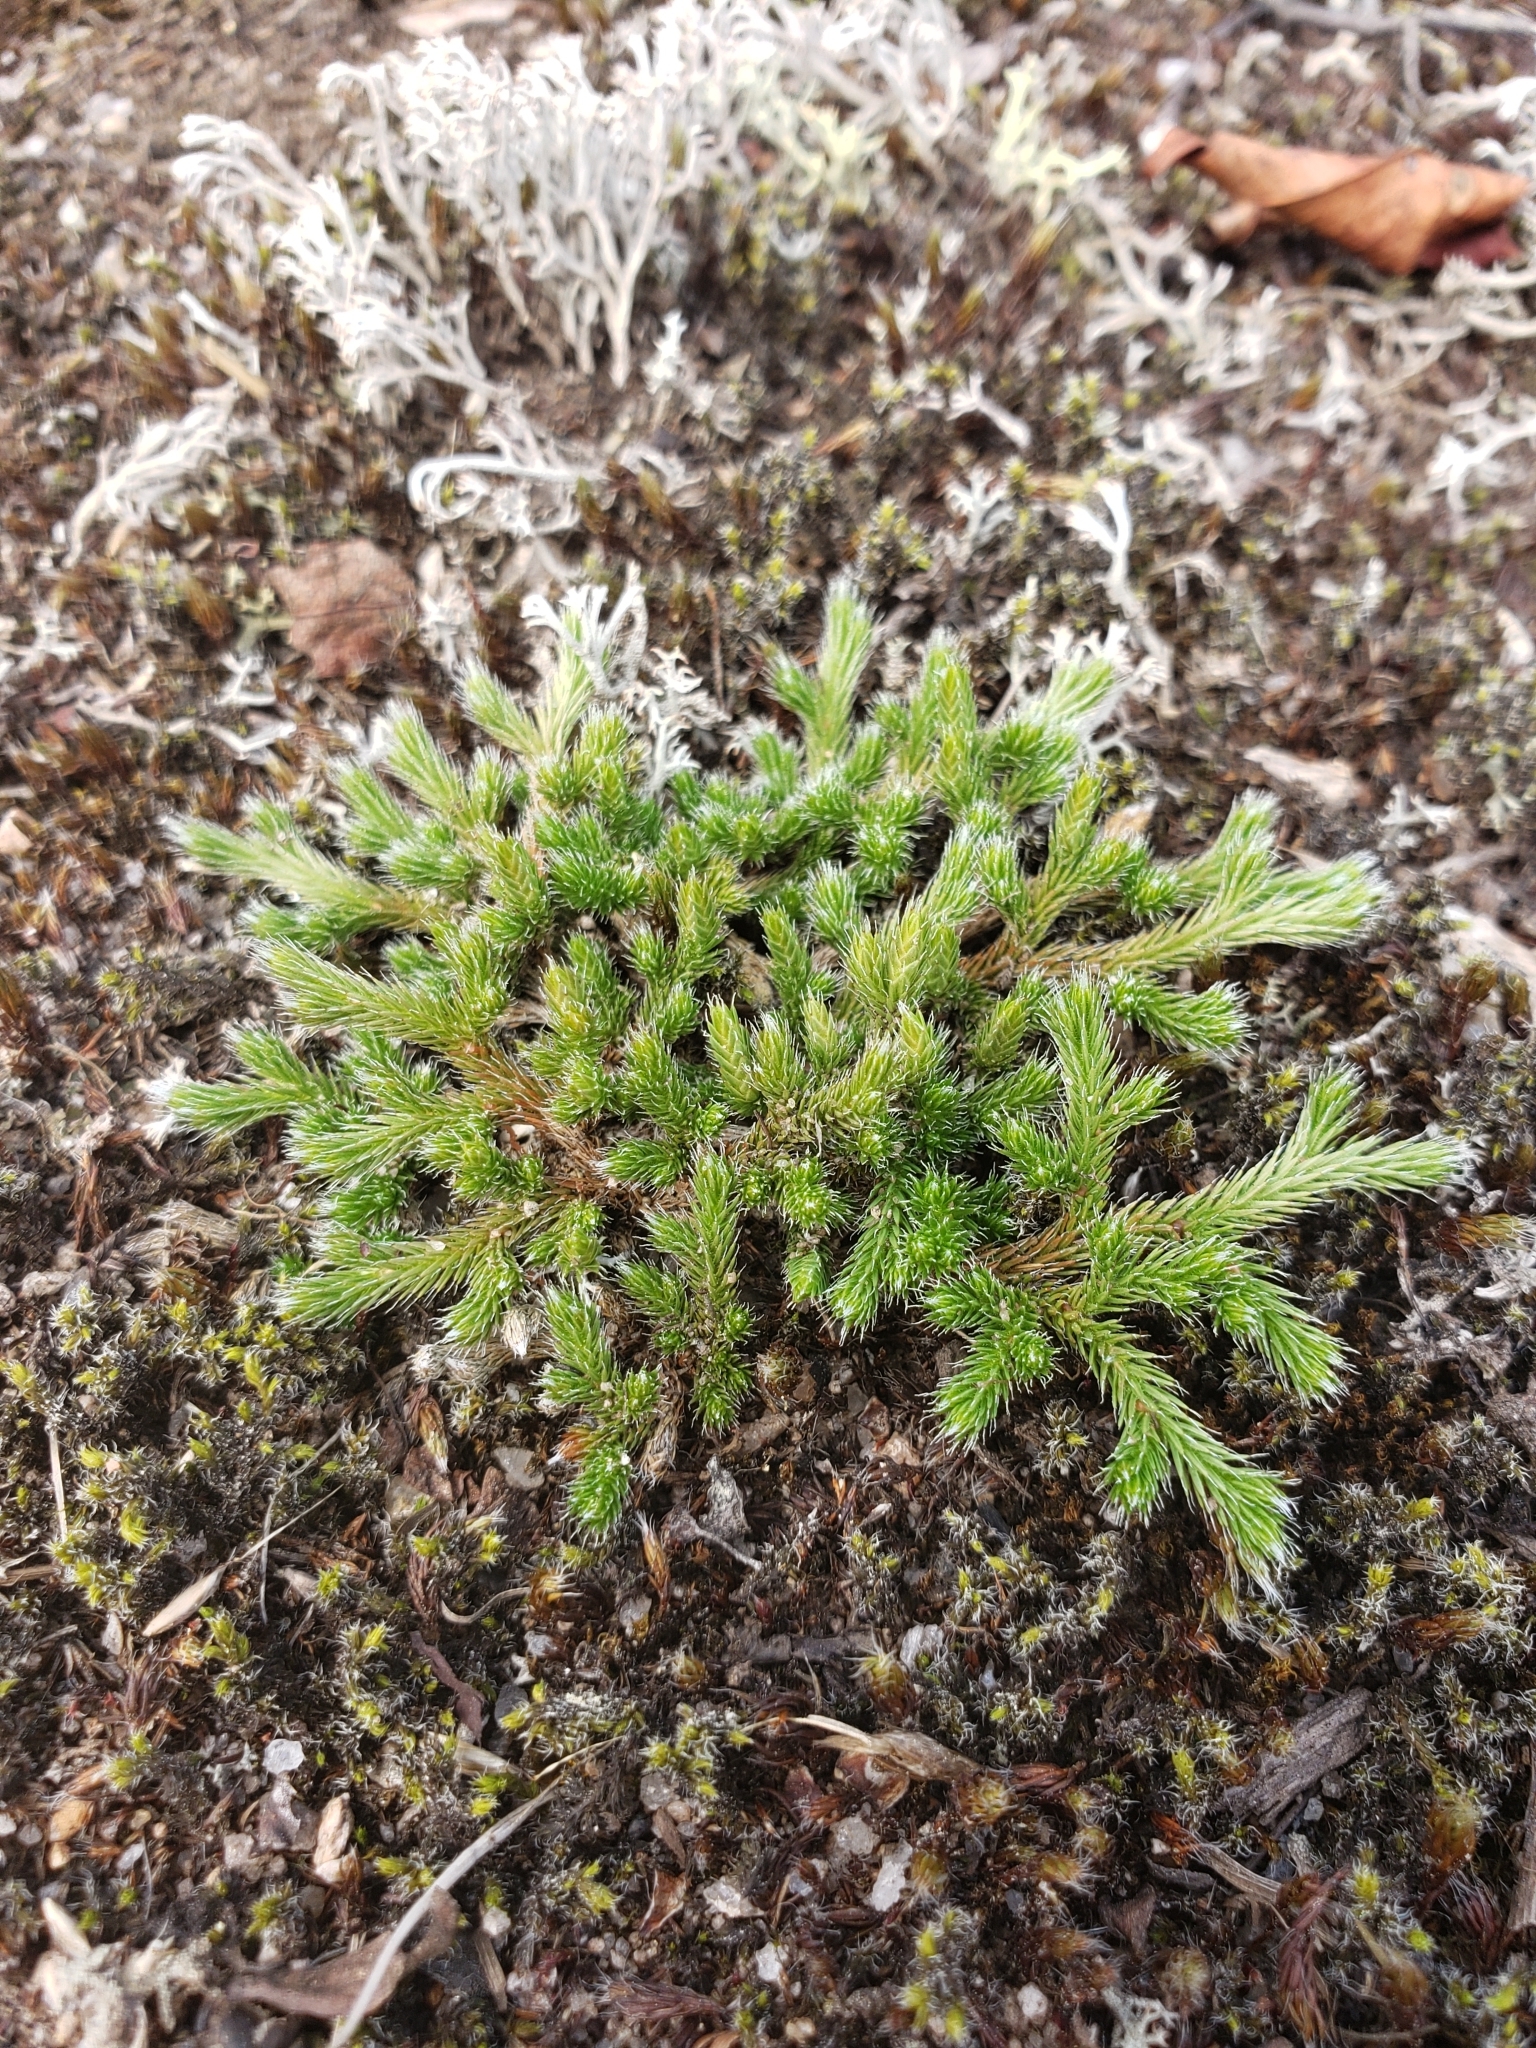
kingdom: Plantae
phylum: Tracheophyta
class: Lycopodiopsida
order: Selaginellales
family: Selaginellaceae
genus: Selaginella
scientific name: Selaginella rupestris
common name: Dwarf spikemoss
